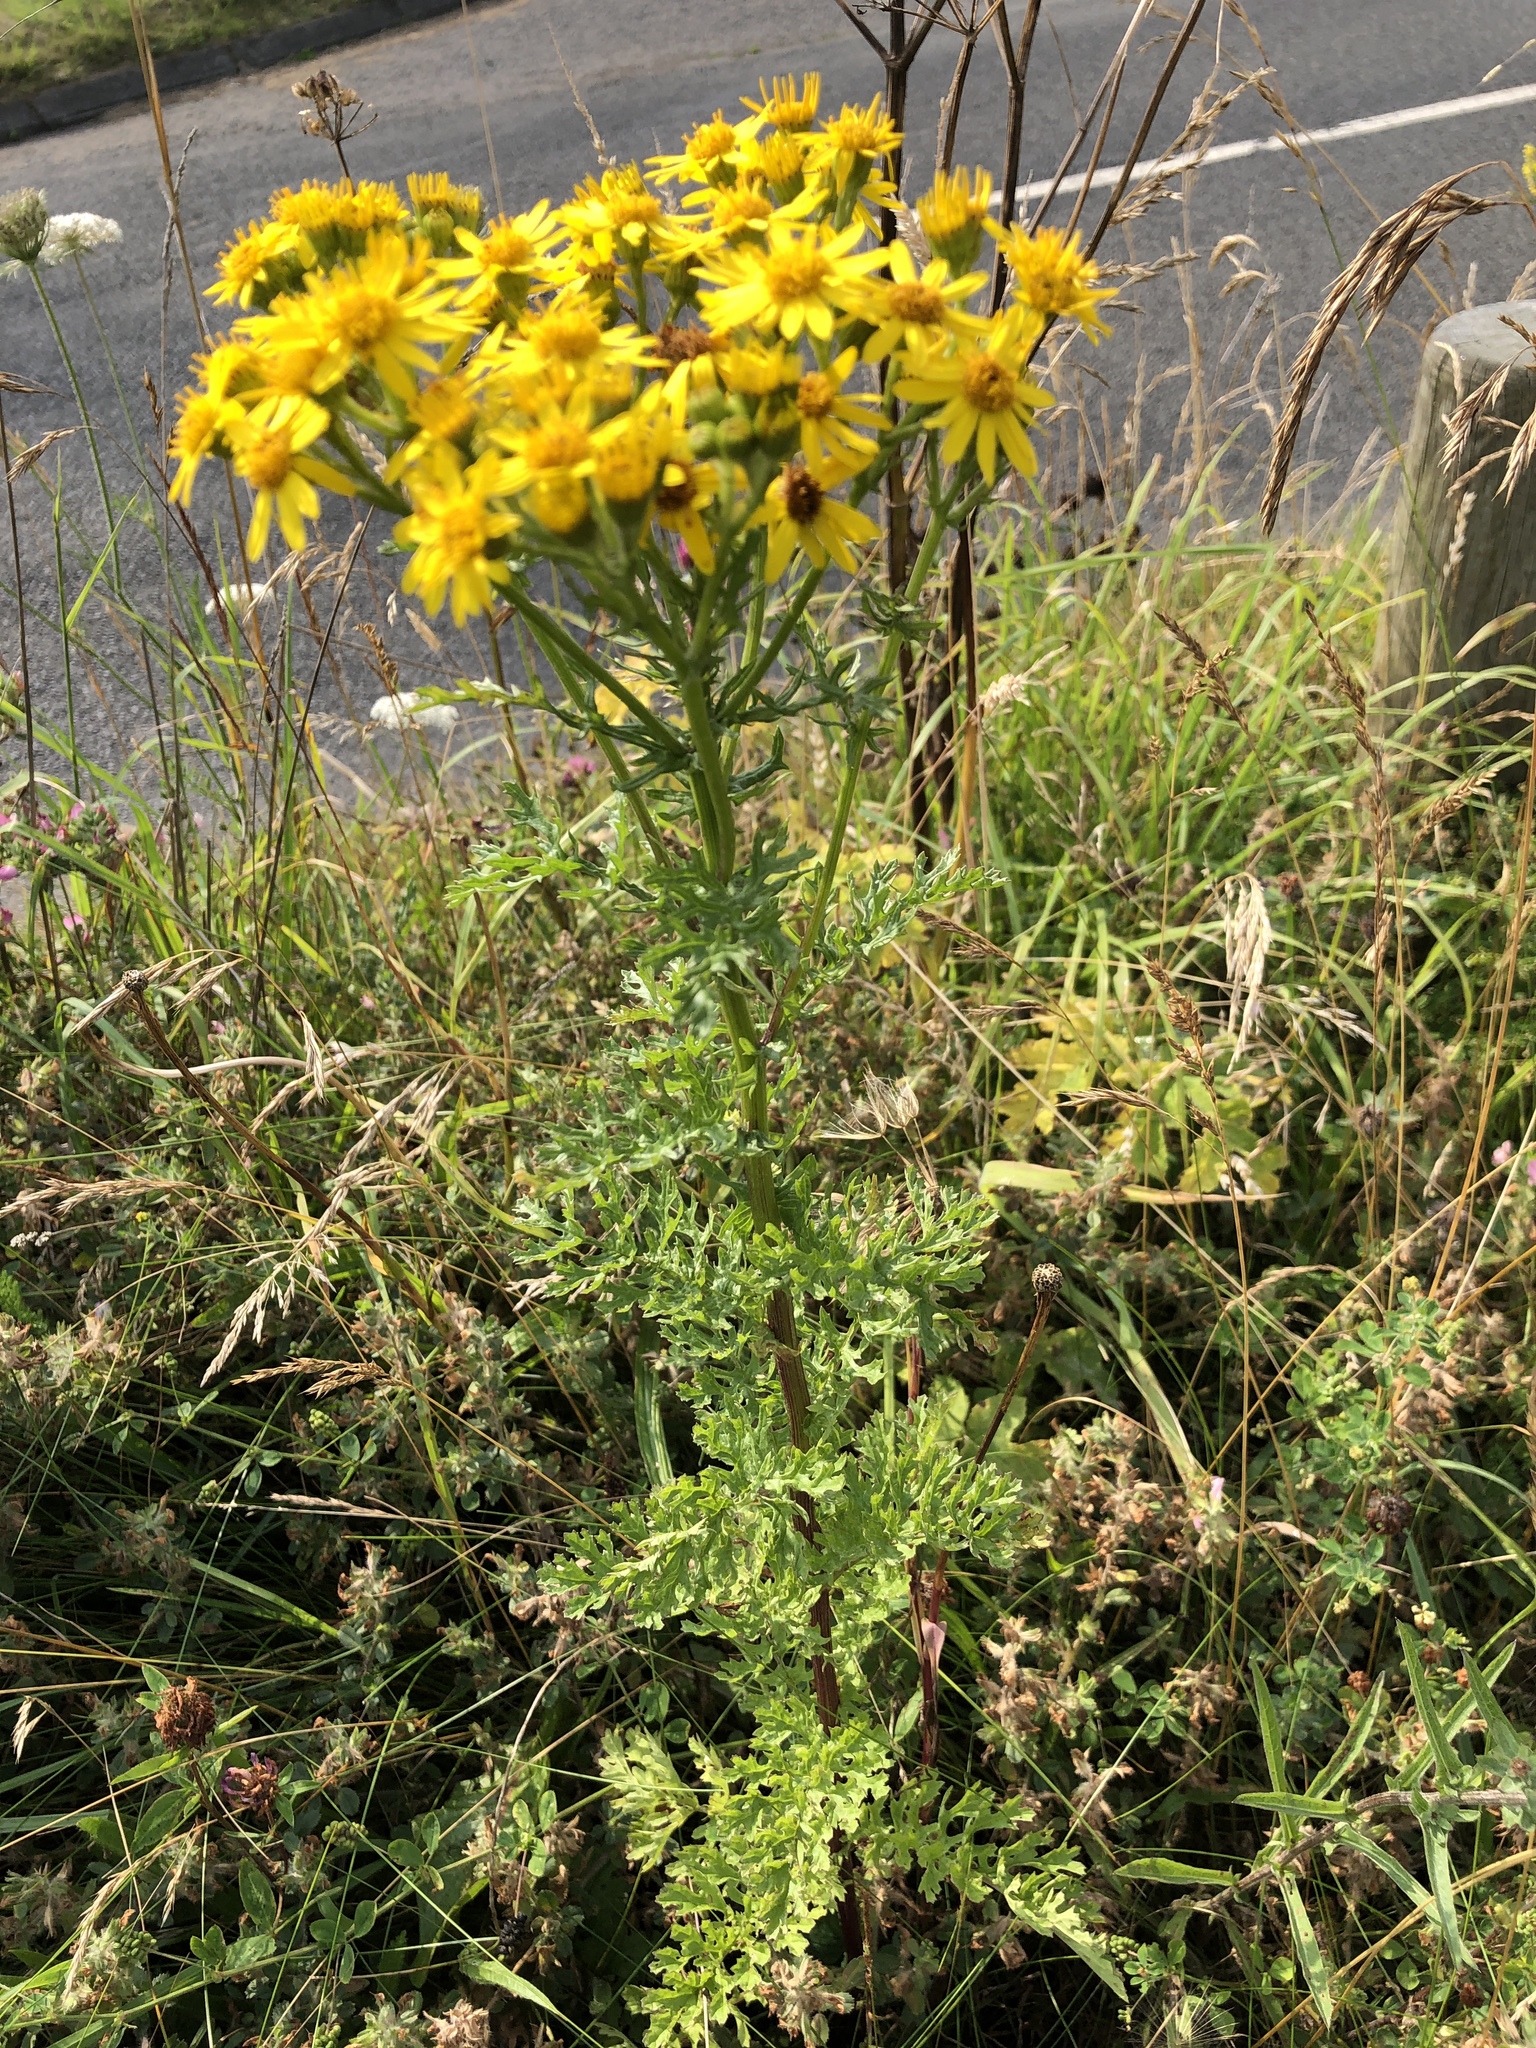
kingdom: Plantae
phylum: Tracheophyta
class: Magnoliopsida
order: Asterales
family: Asteraceae
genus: Jacobaea
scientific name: Jacobaea vulgaris
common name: Stinking willie
